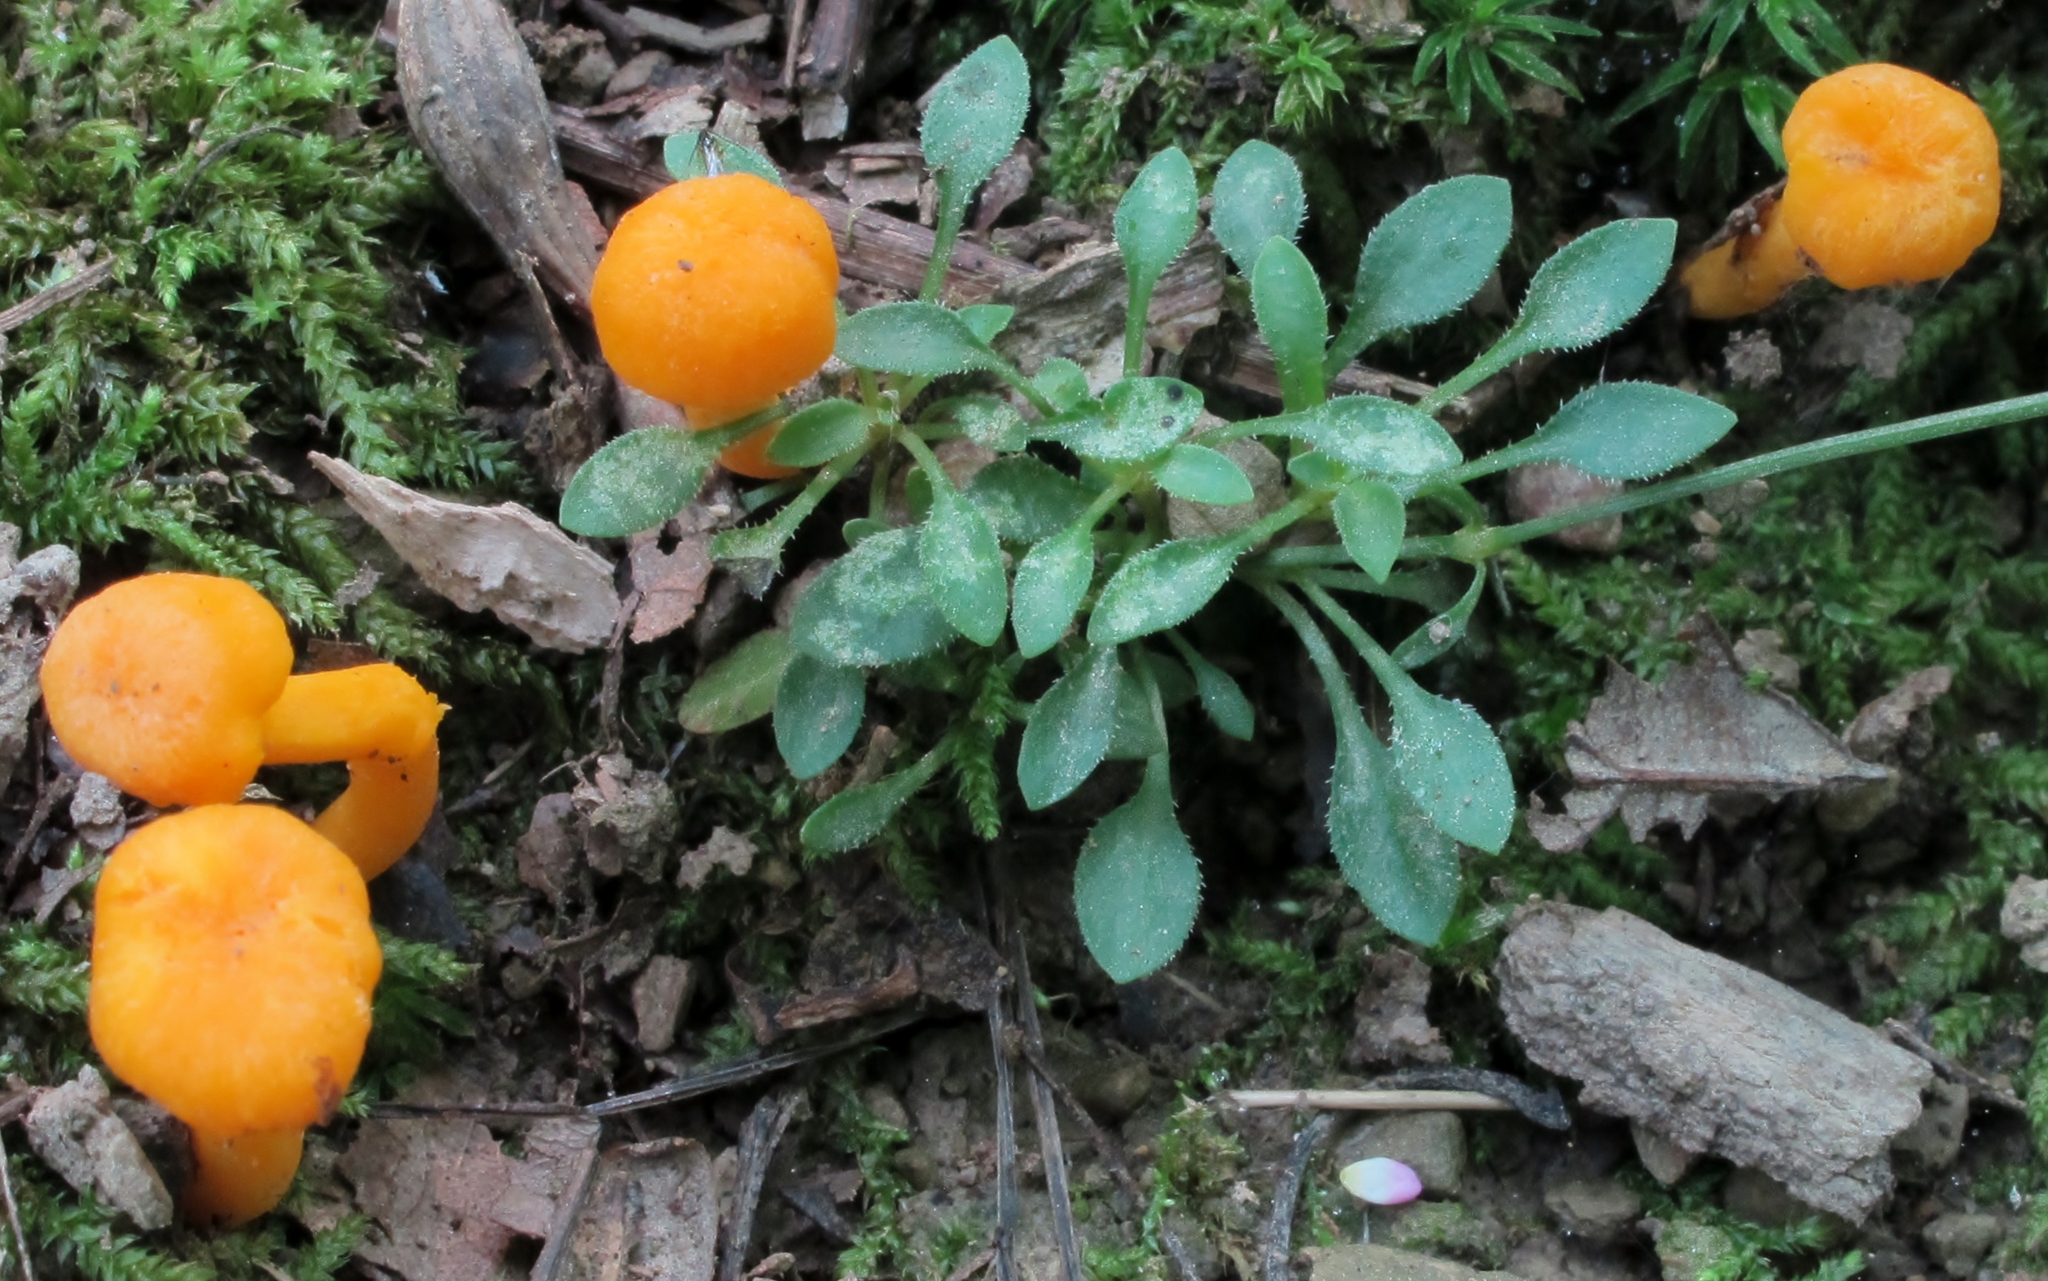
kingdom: Fungi
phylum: Basidiomycota
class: Agaricomycetes
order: Cantharellales
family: Hydnaceae
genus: Cantharellus
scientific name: Cantharellus minor
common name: Small chanterelle
